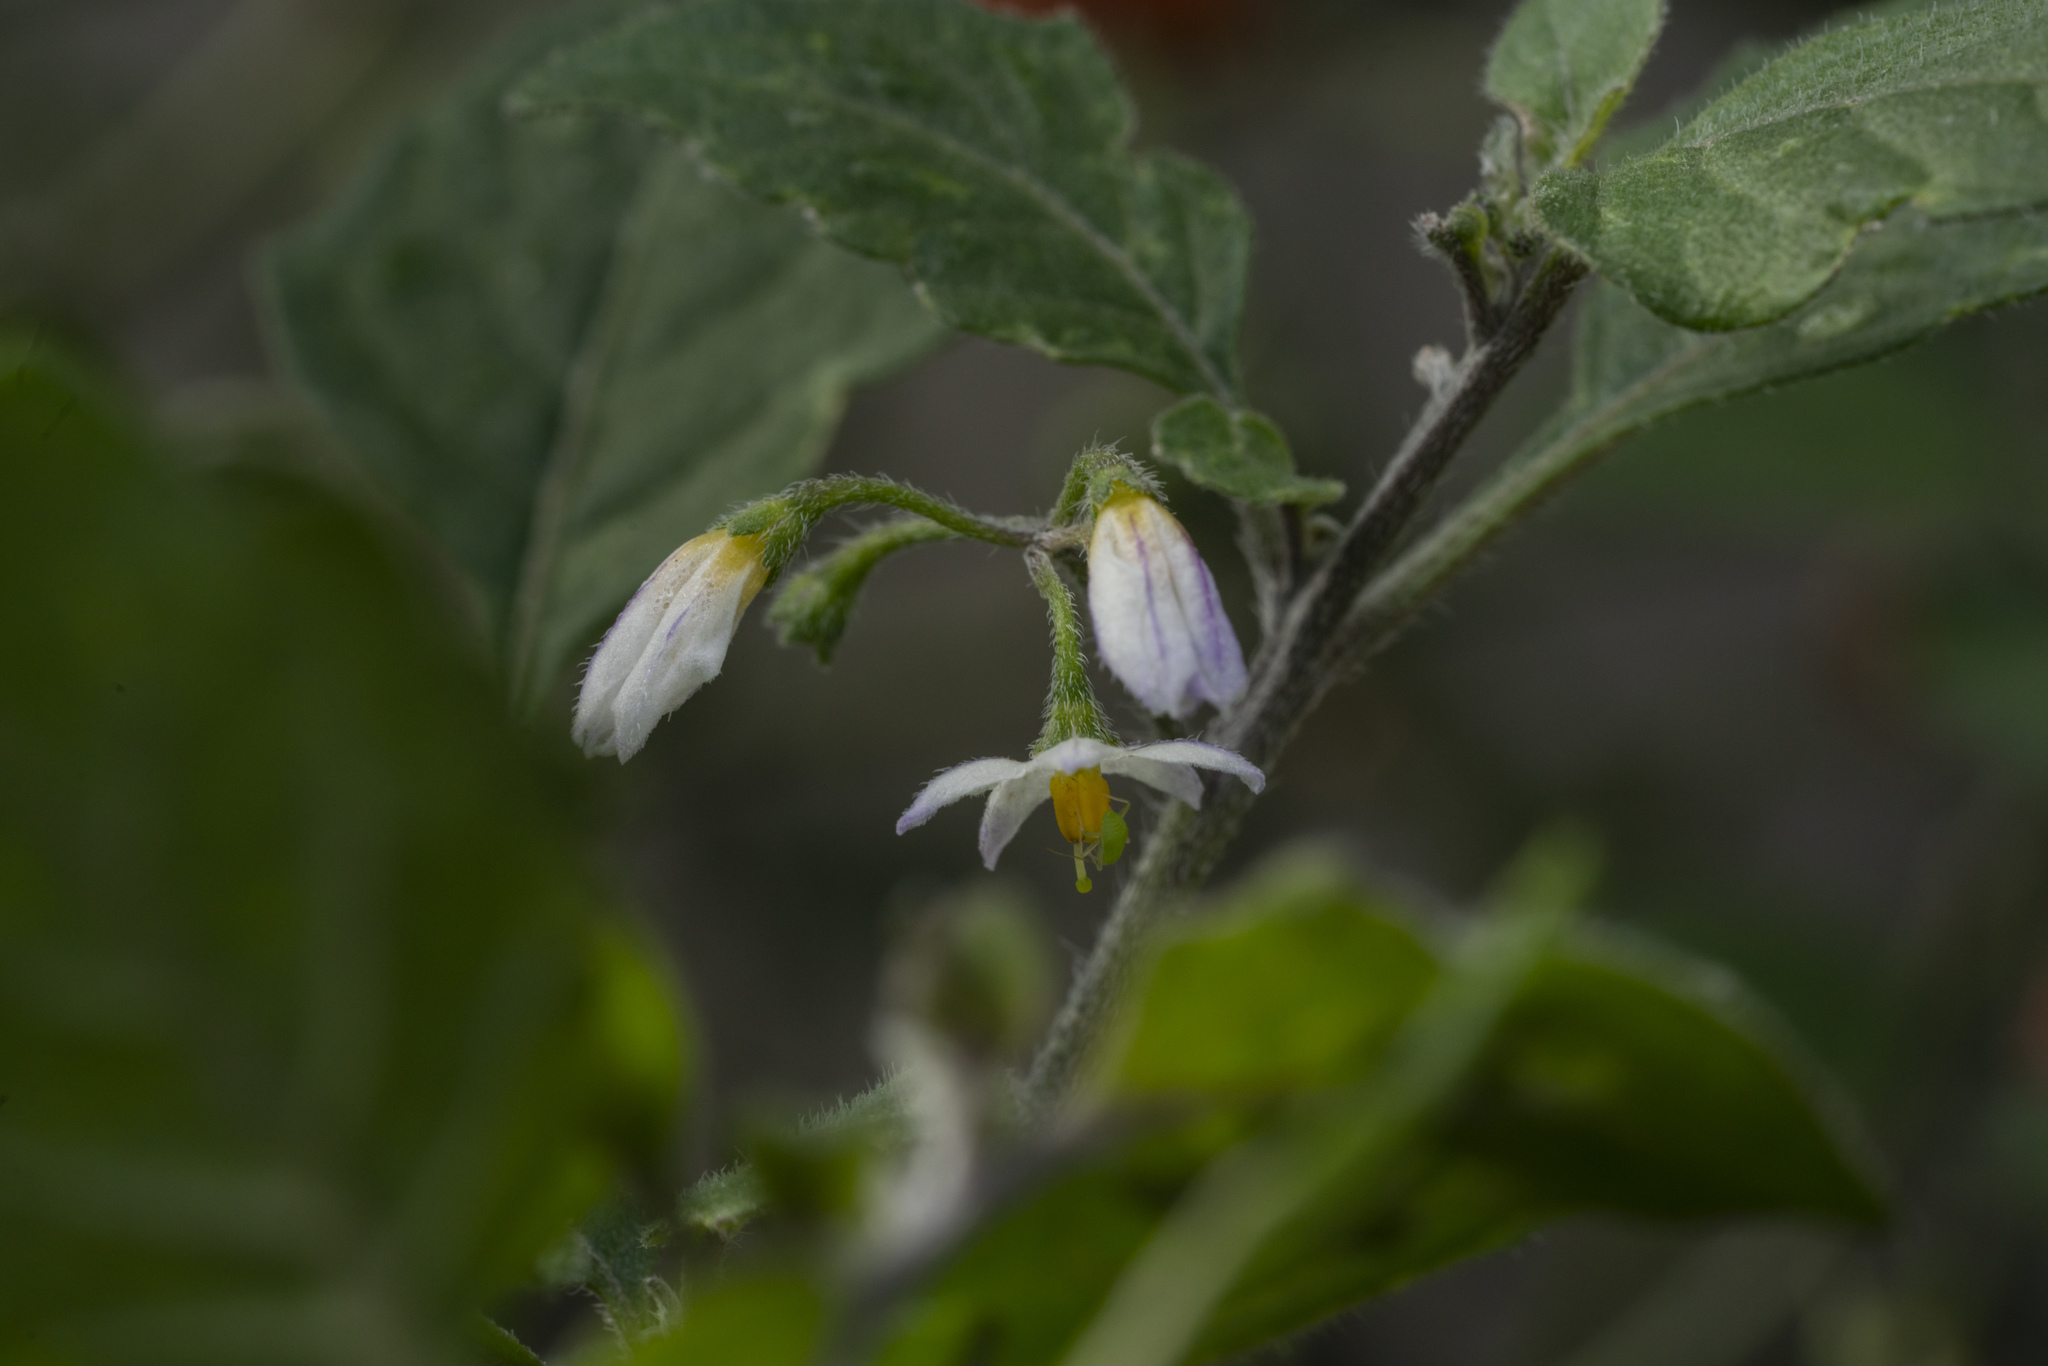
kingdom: Plantae
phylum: Tracheophyta
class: Magnoliopsida
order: Solanales
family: Solanaceae
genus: Solanum
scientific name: Solanum villosum
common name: Red nightshade
